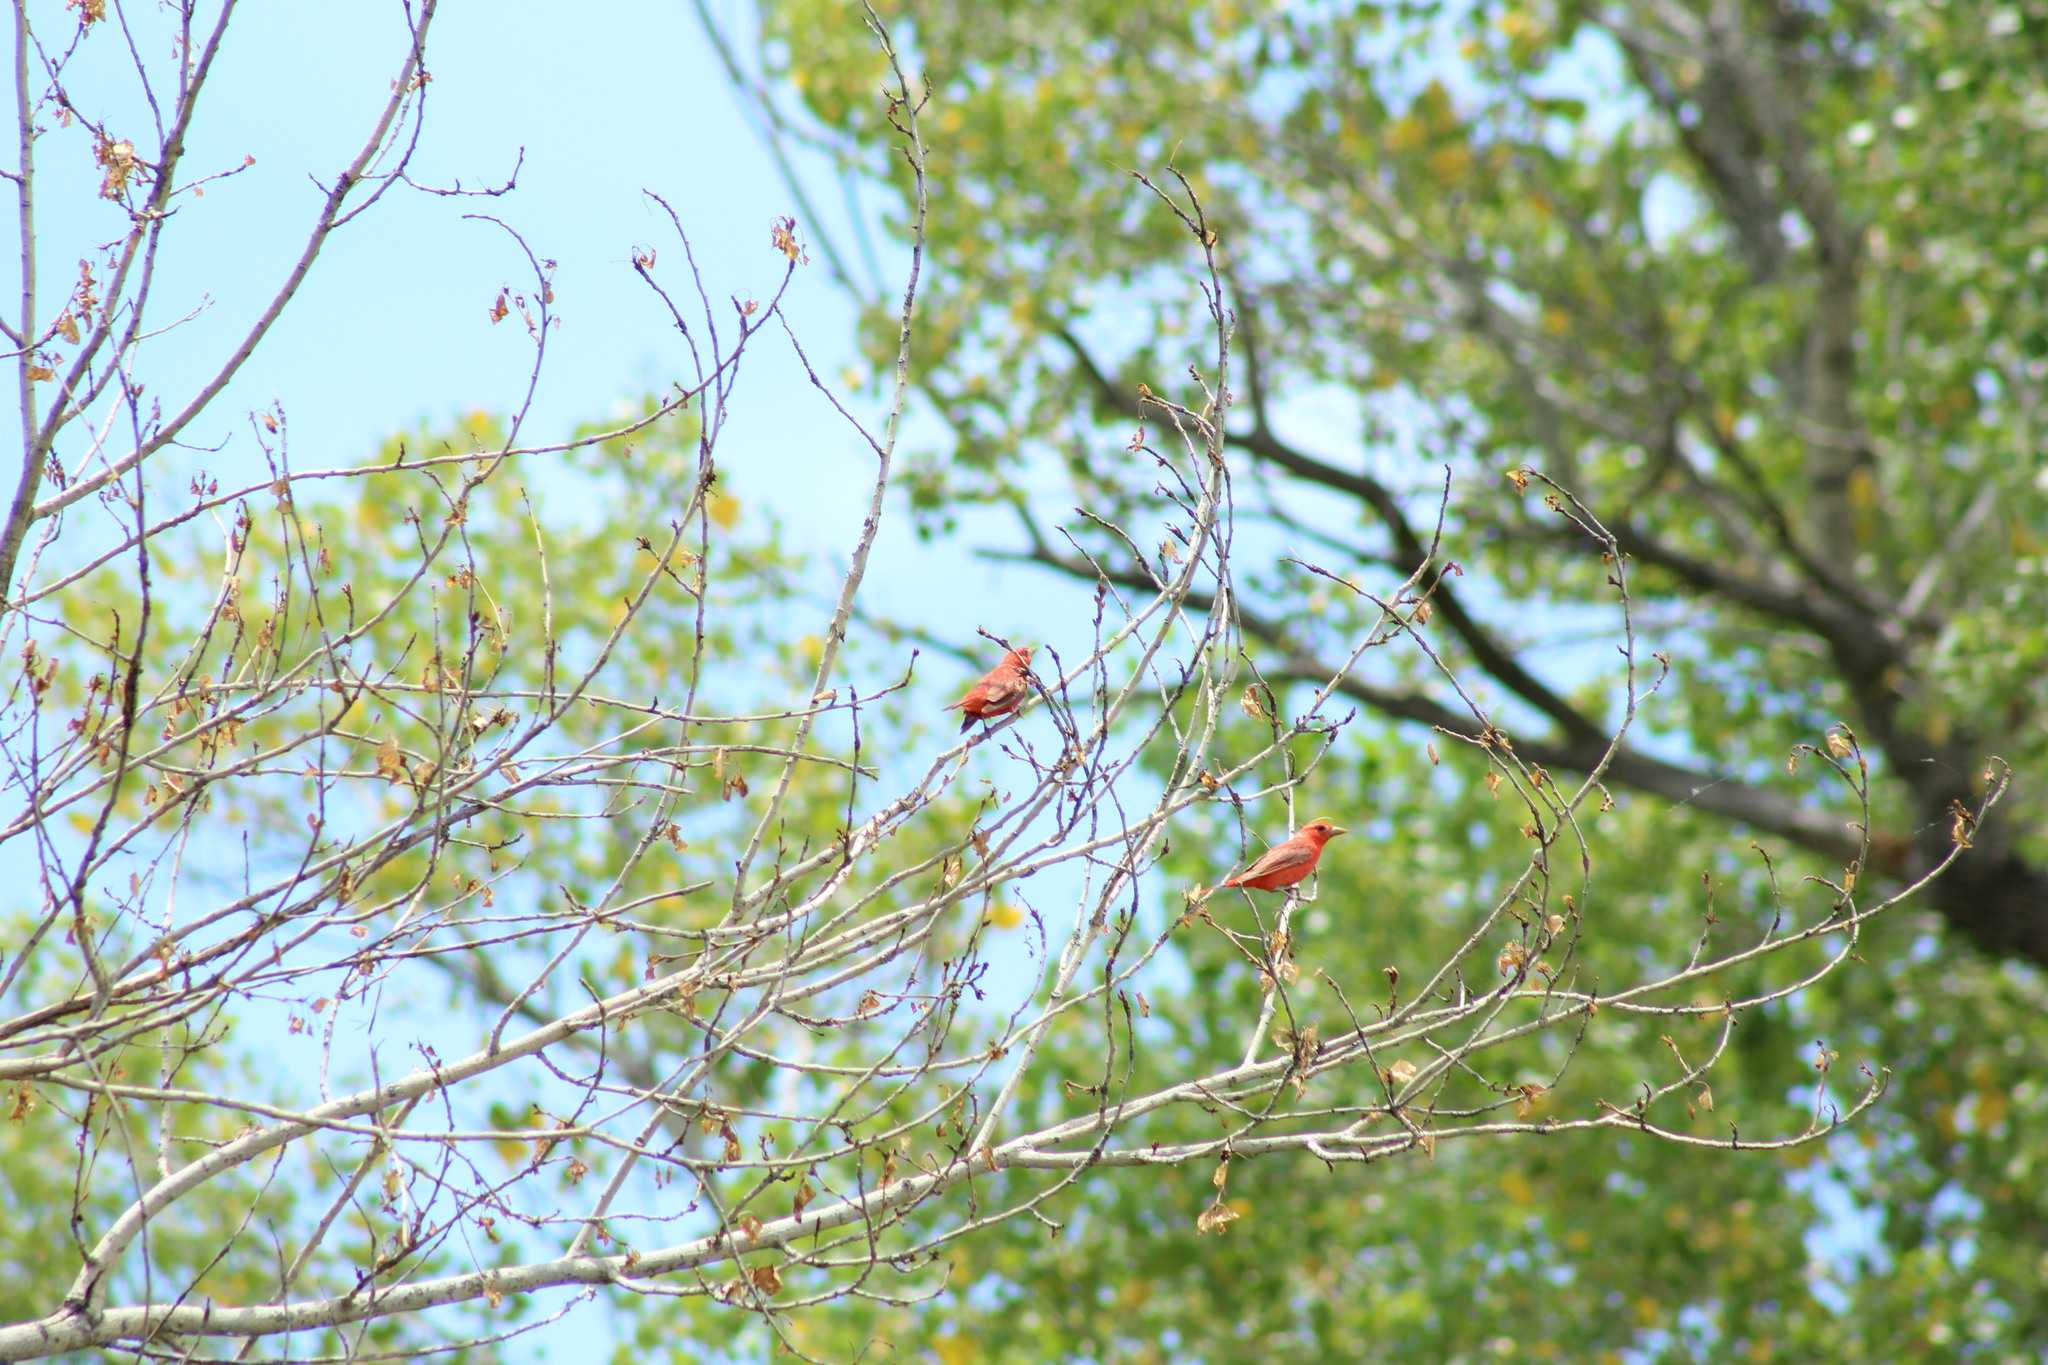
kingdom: Animalia
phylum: Chordata
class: Aves
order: Passeriformes
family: Cardinalidae
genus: Piranga
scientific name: Piranga rubra
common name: Summer tanager
